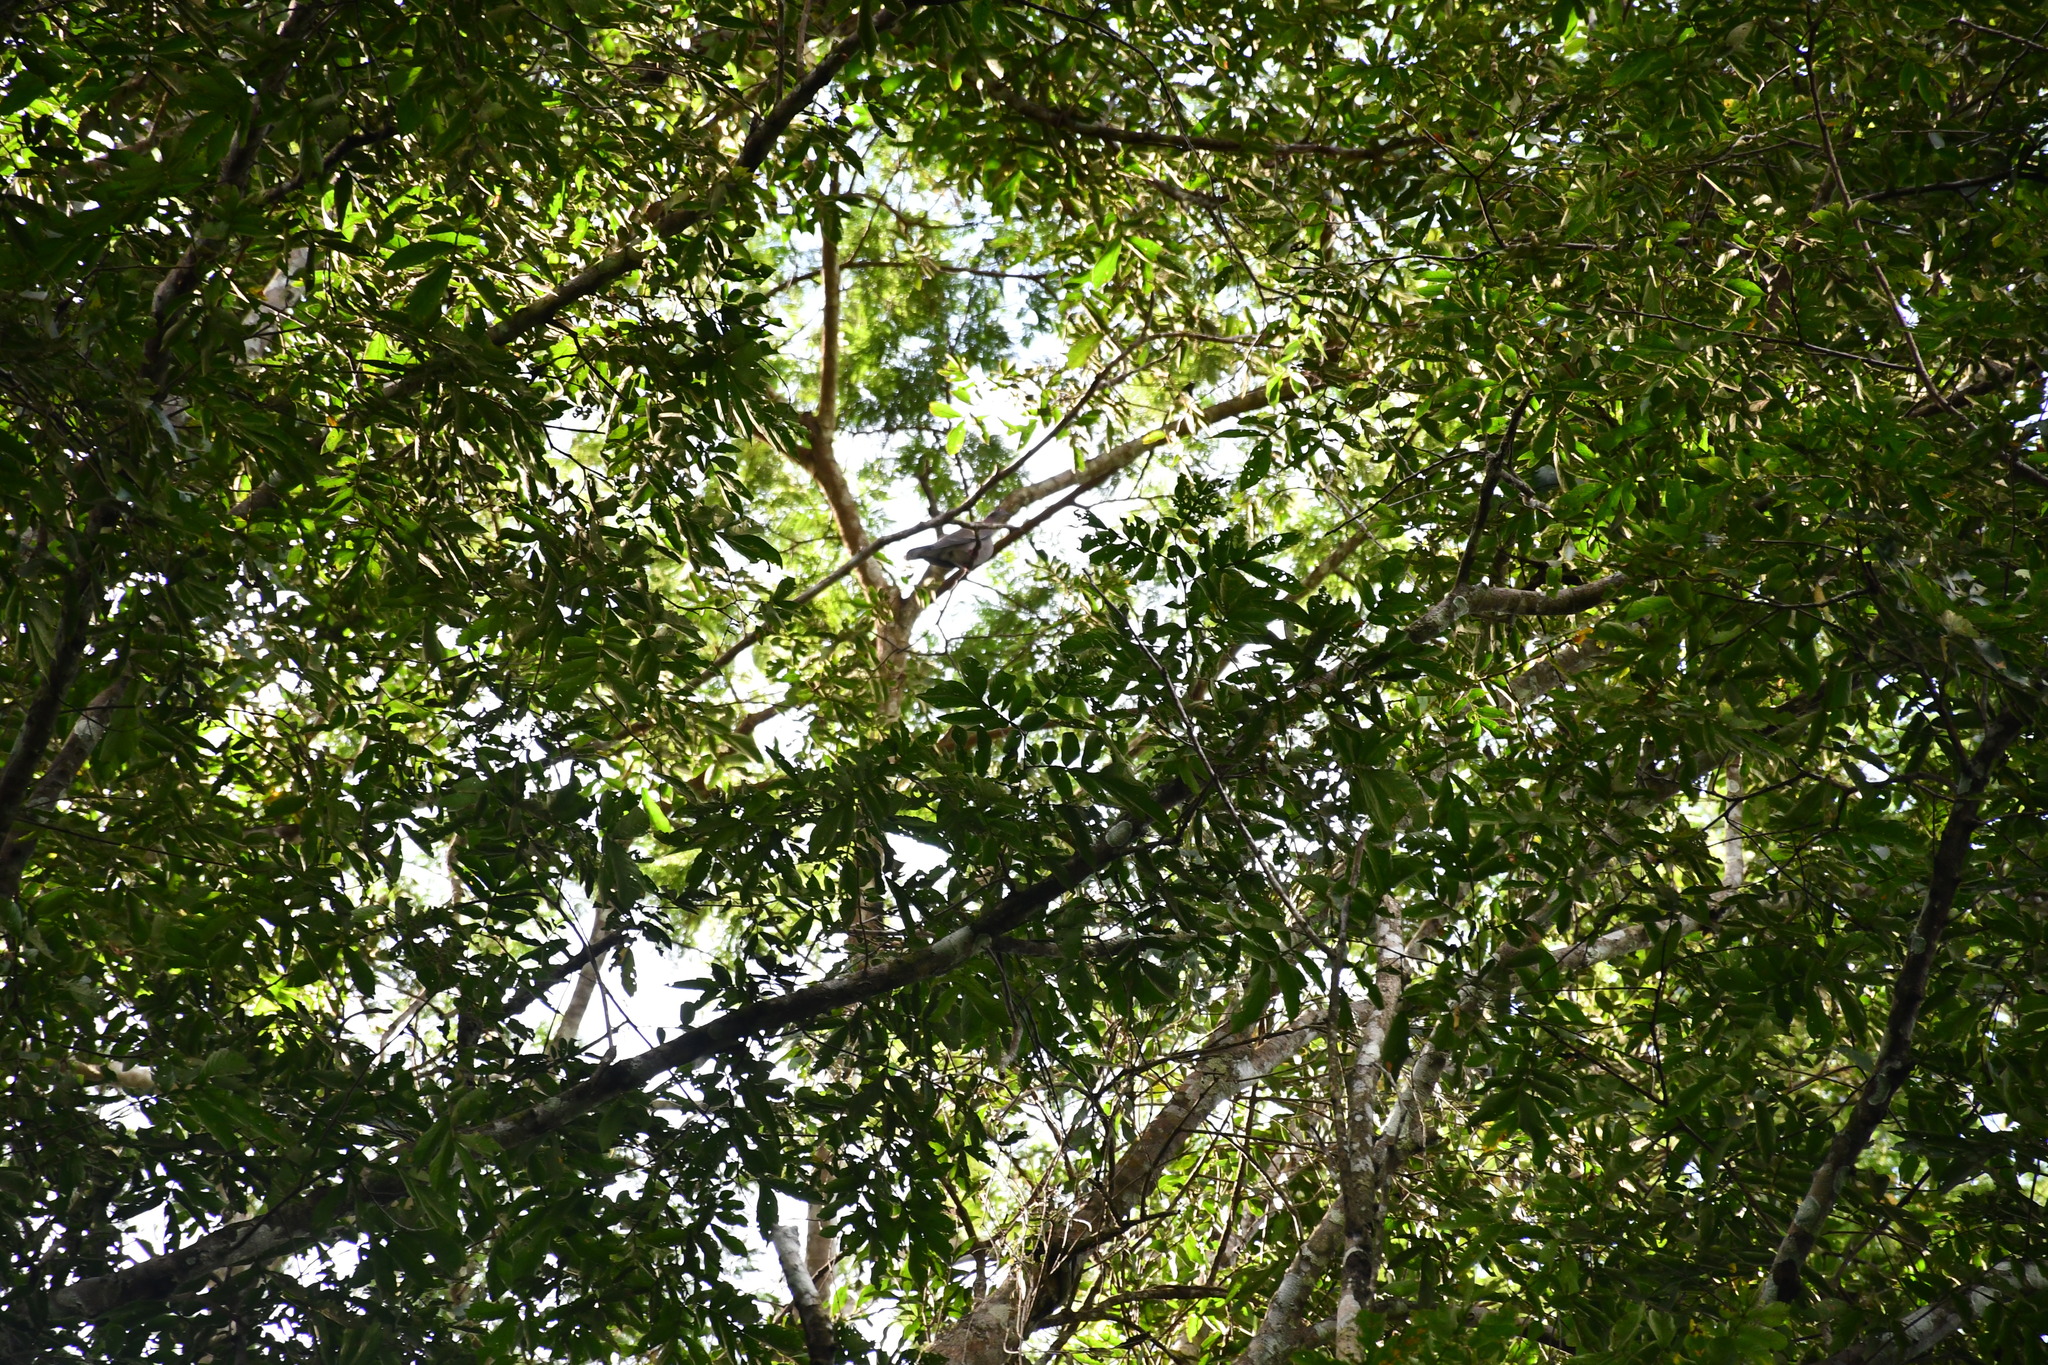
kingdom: Animalia
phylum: Chordata
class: Aves
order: Columbiformes
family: Columbidae
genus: Patagioenas
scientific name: Patagioenas subvinacea
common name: Ruddy pigeon
